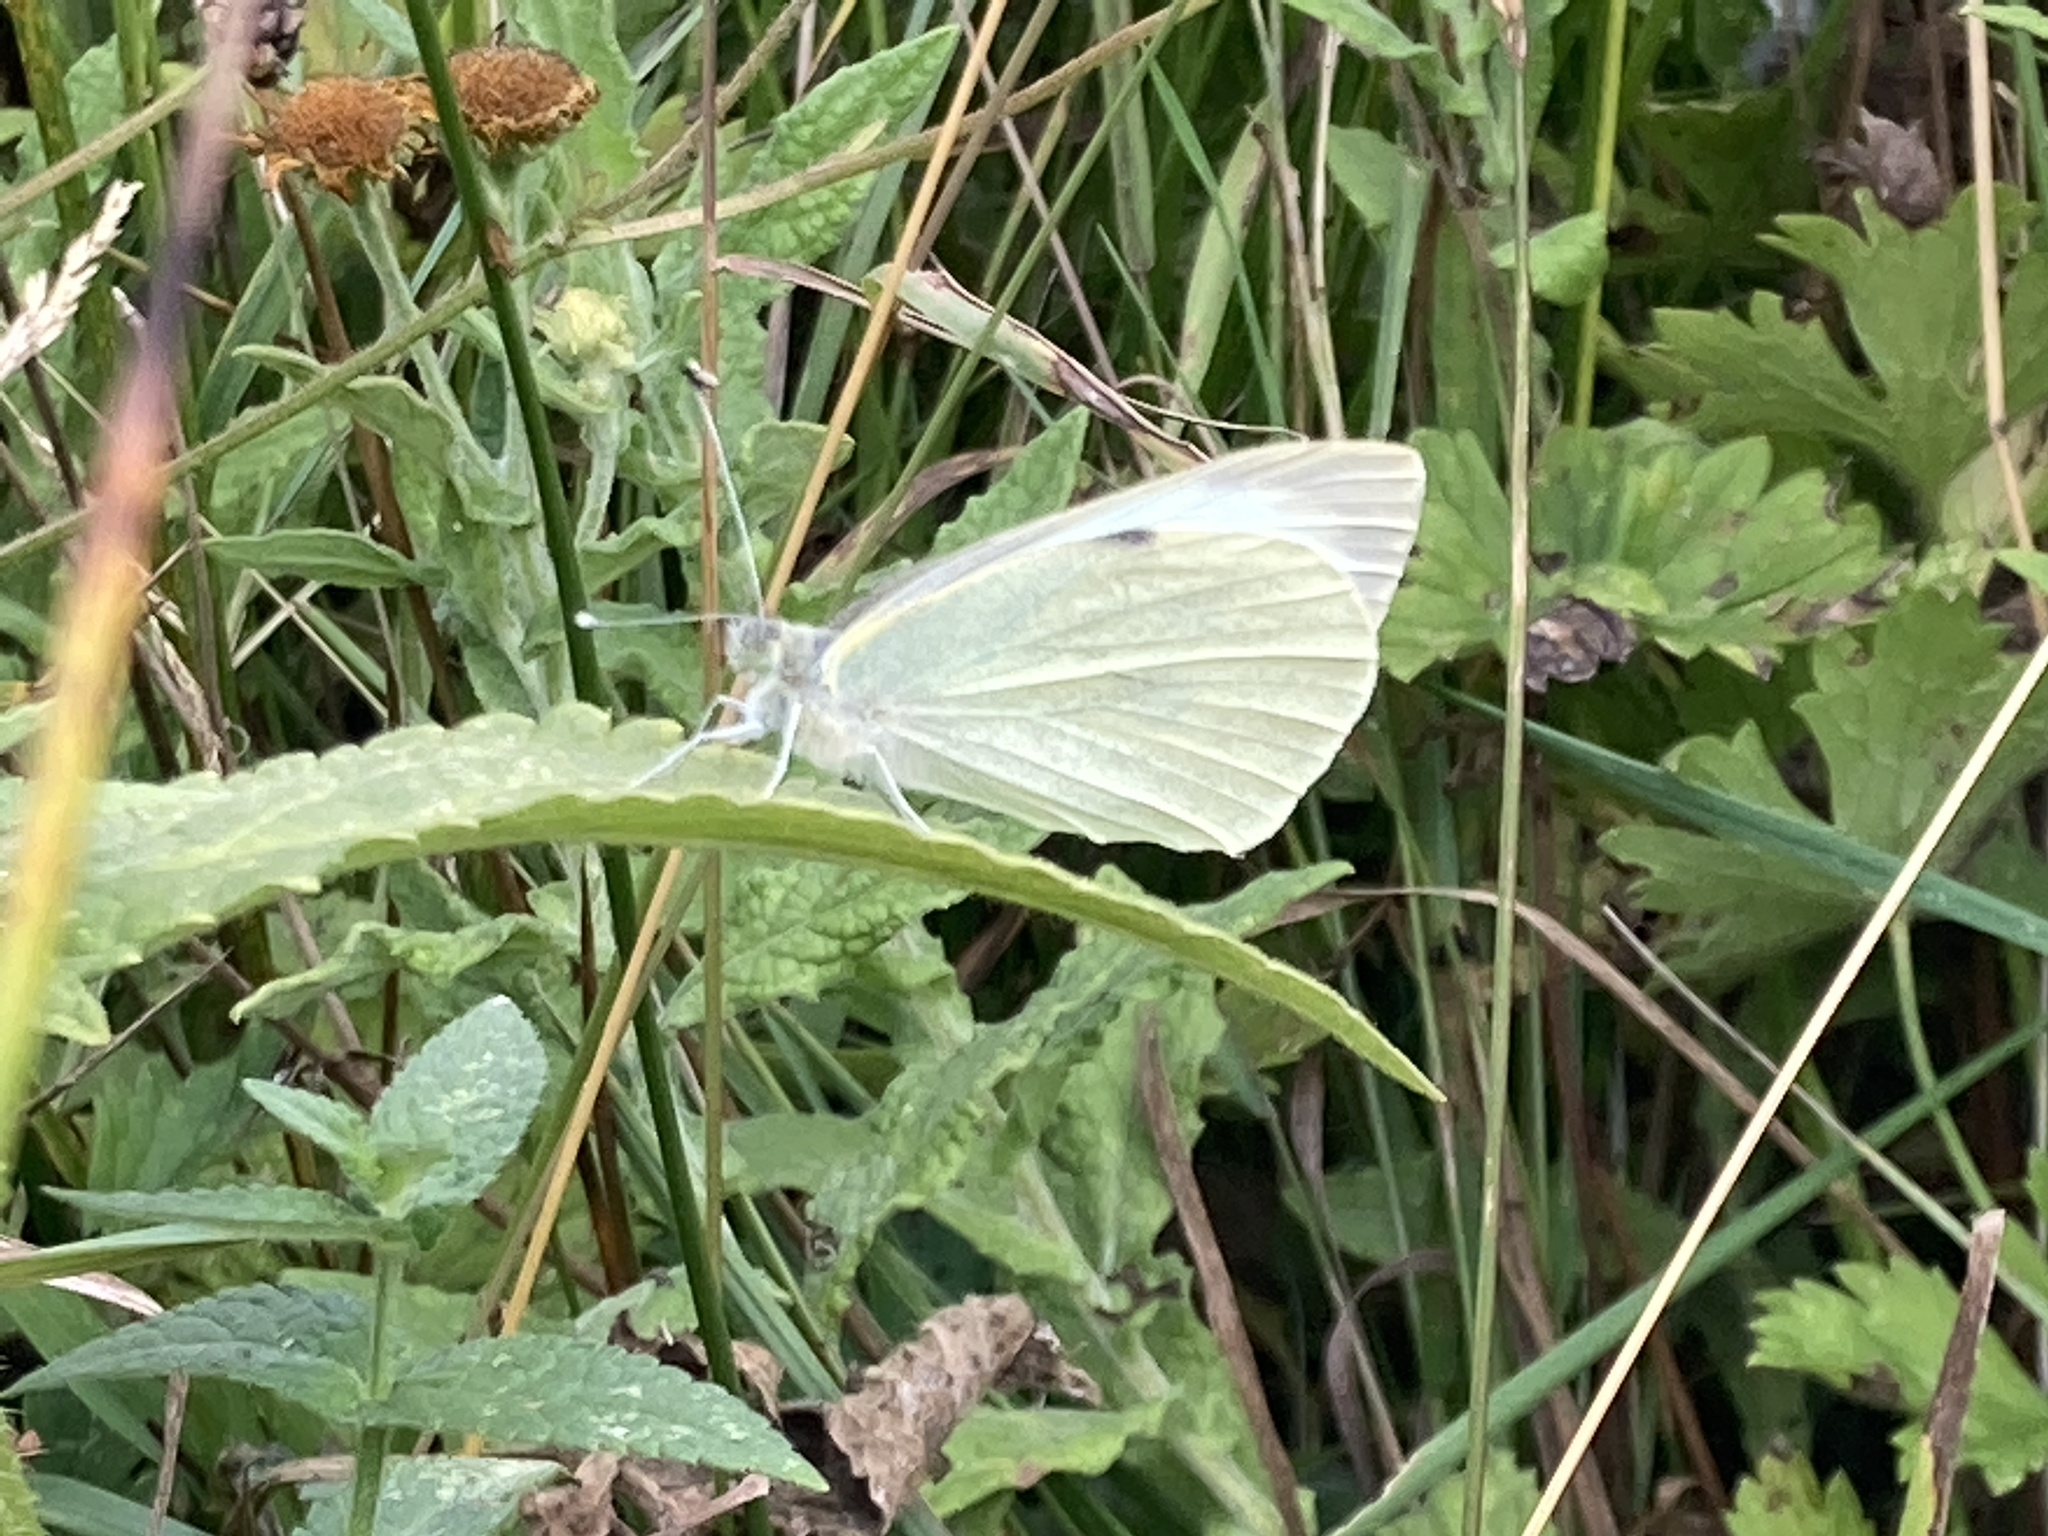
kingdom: Animalia
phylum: Arthropoda
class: Insecta
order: Lepidoptera
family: Pieridae
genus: Pieris
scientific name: Pieris brassicae
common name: Large white
